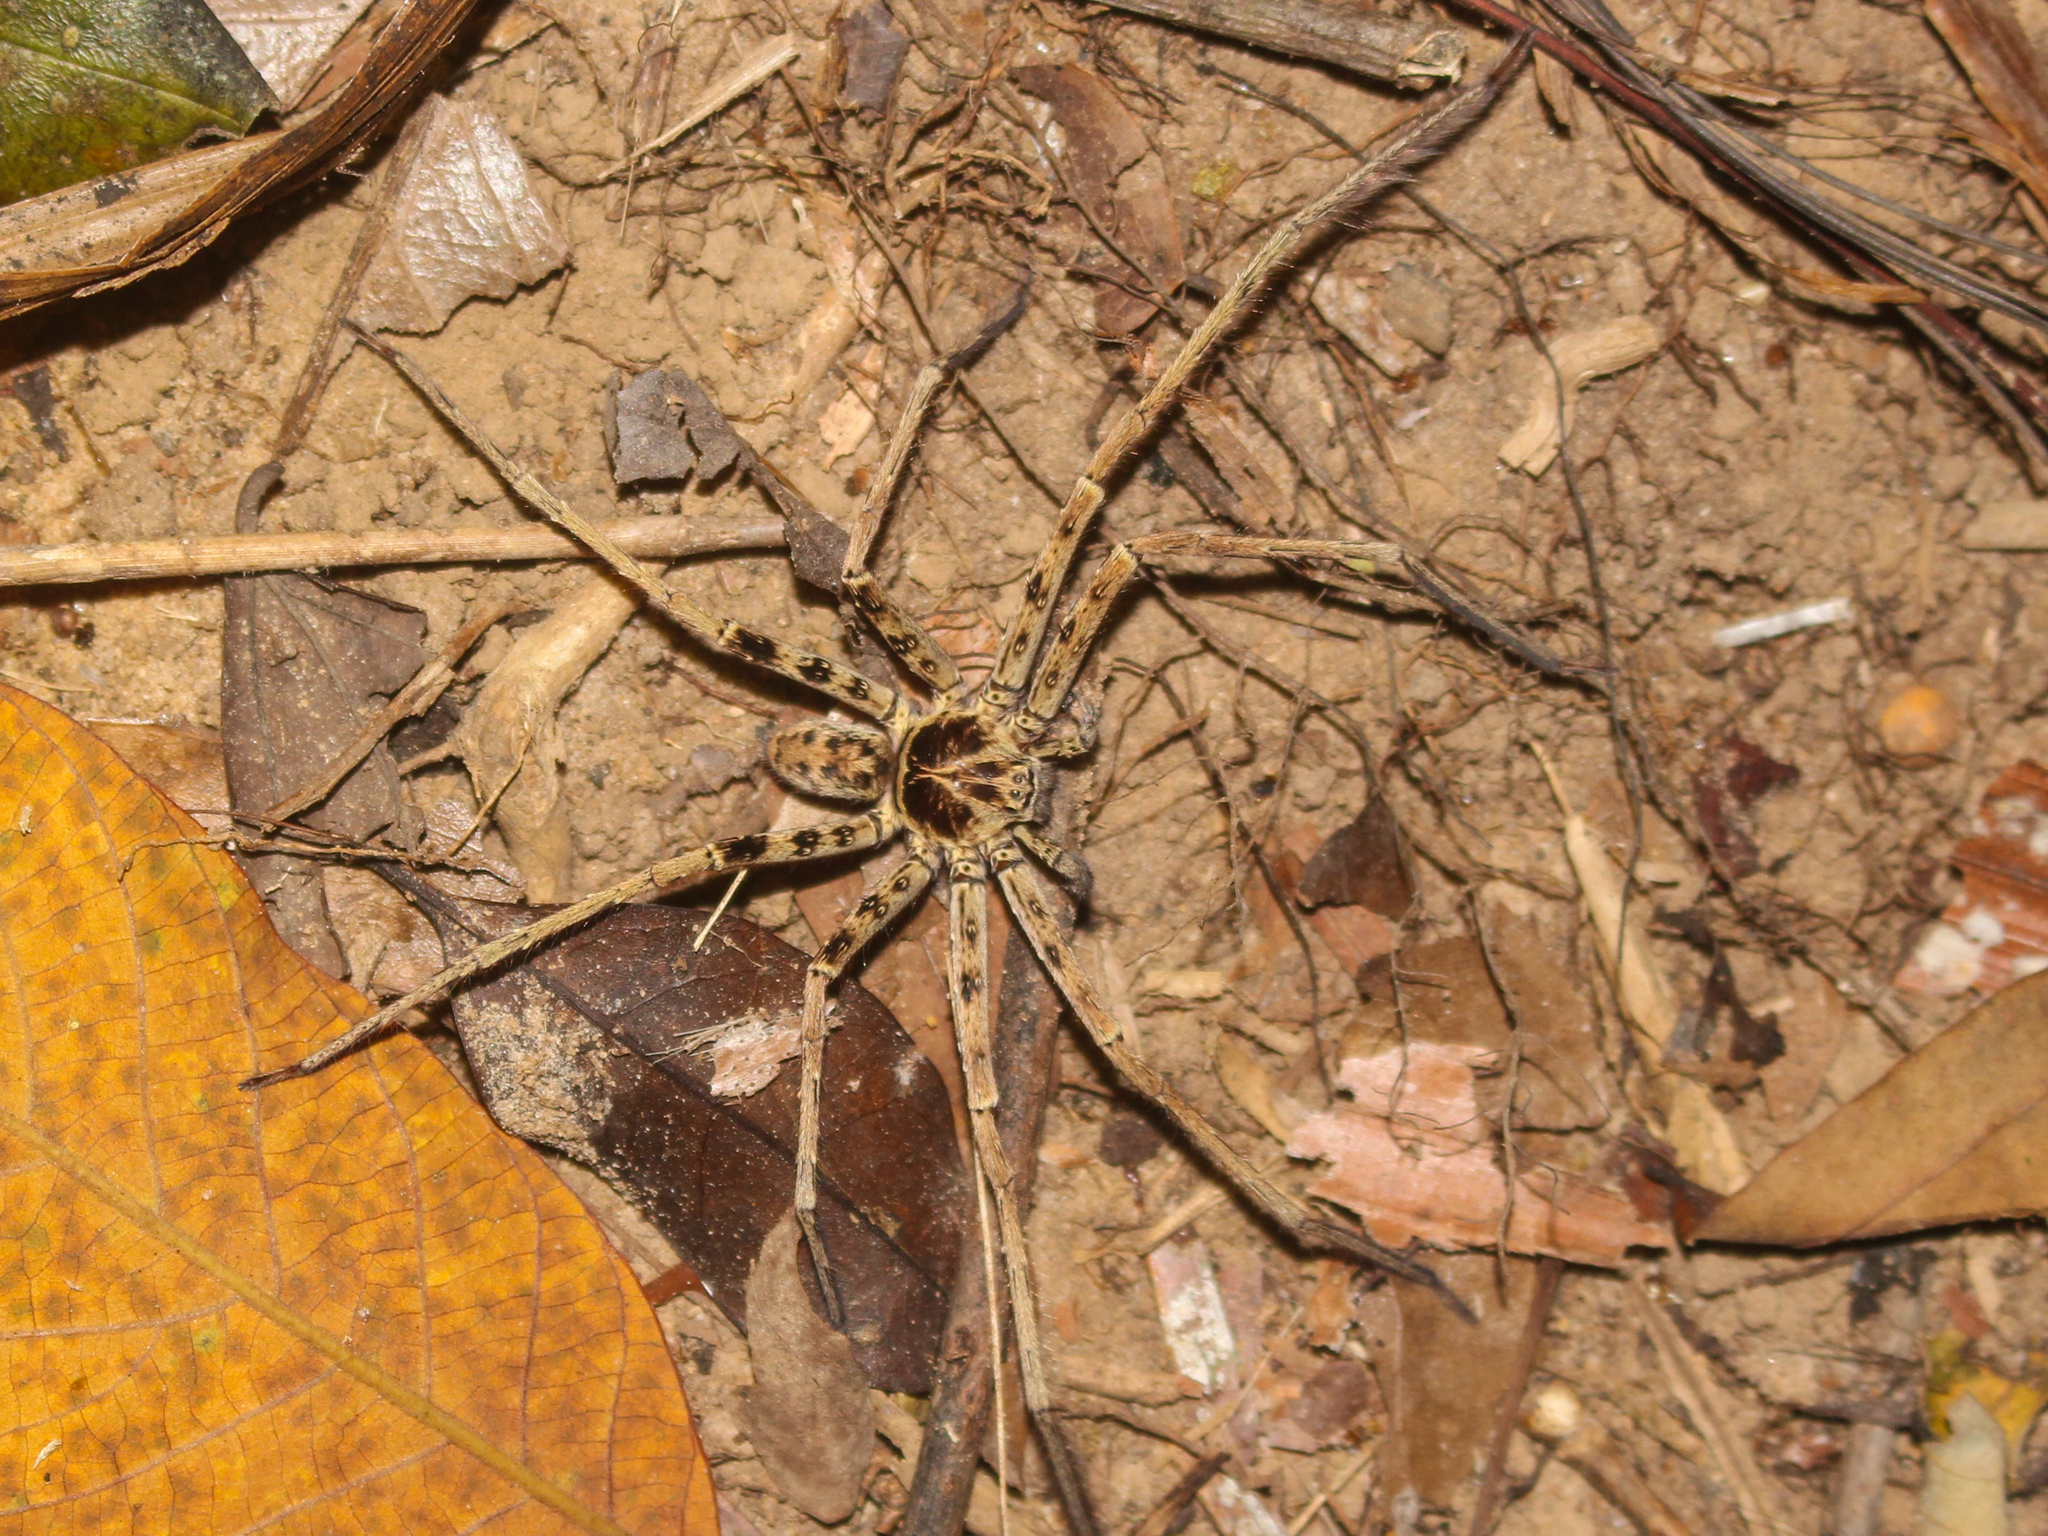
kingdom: Animalia
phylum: Arthropoda
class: Arachnida
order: Araneae
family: Sparassidae
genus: Heteropoda
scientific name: Heteropoda venatoria
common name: Huntsman spider
